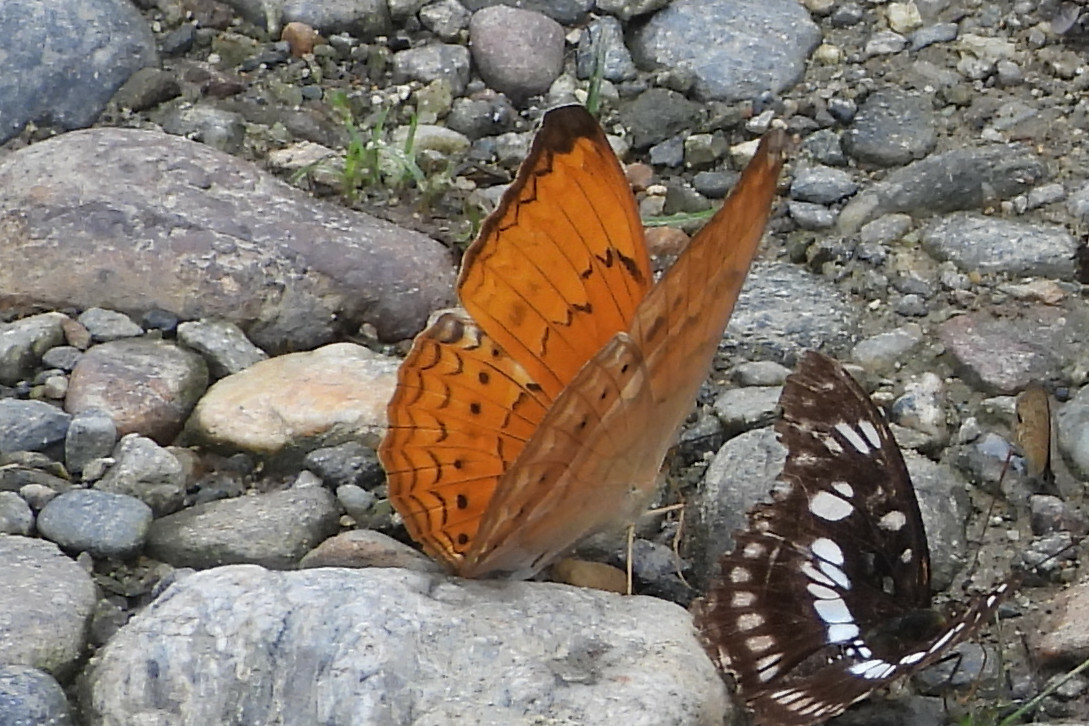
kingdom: Animalia
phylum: Arthropoda
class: Insecta
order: Lepidoptera
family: Nymphalidae
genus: Cirrochroa
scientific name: Cirrochroa aoris
